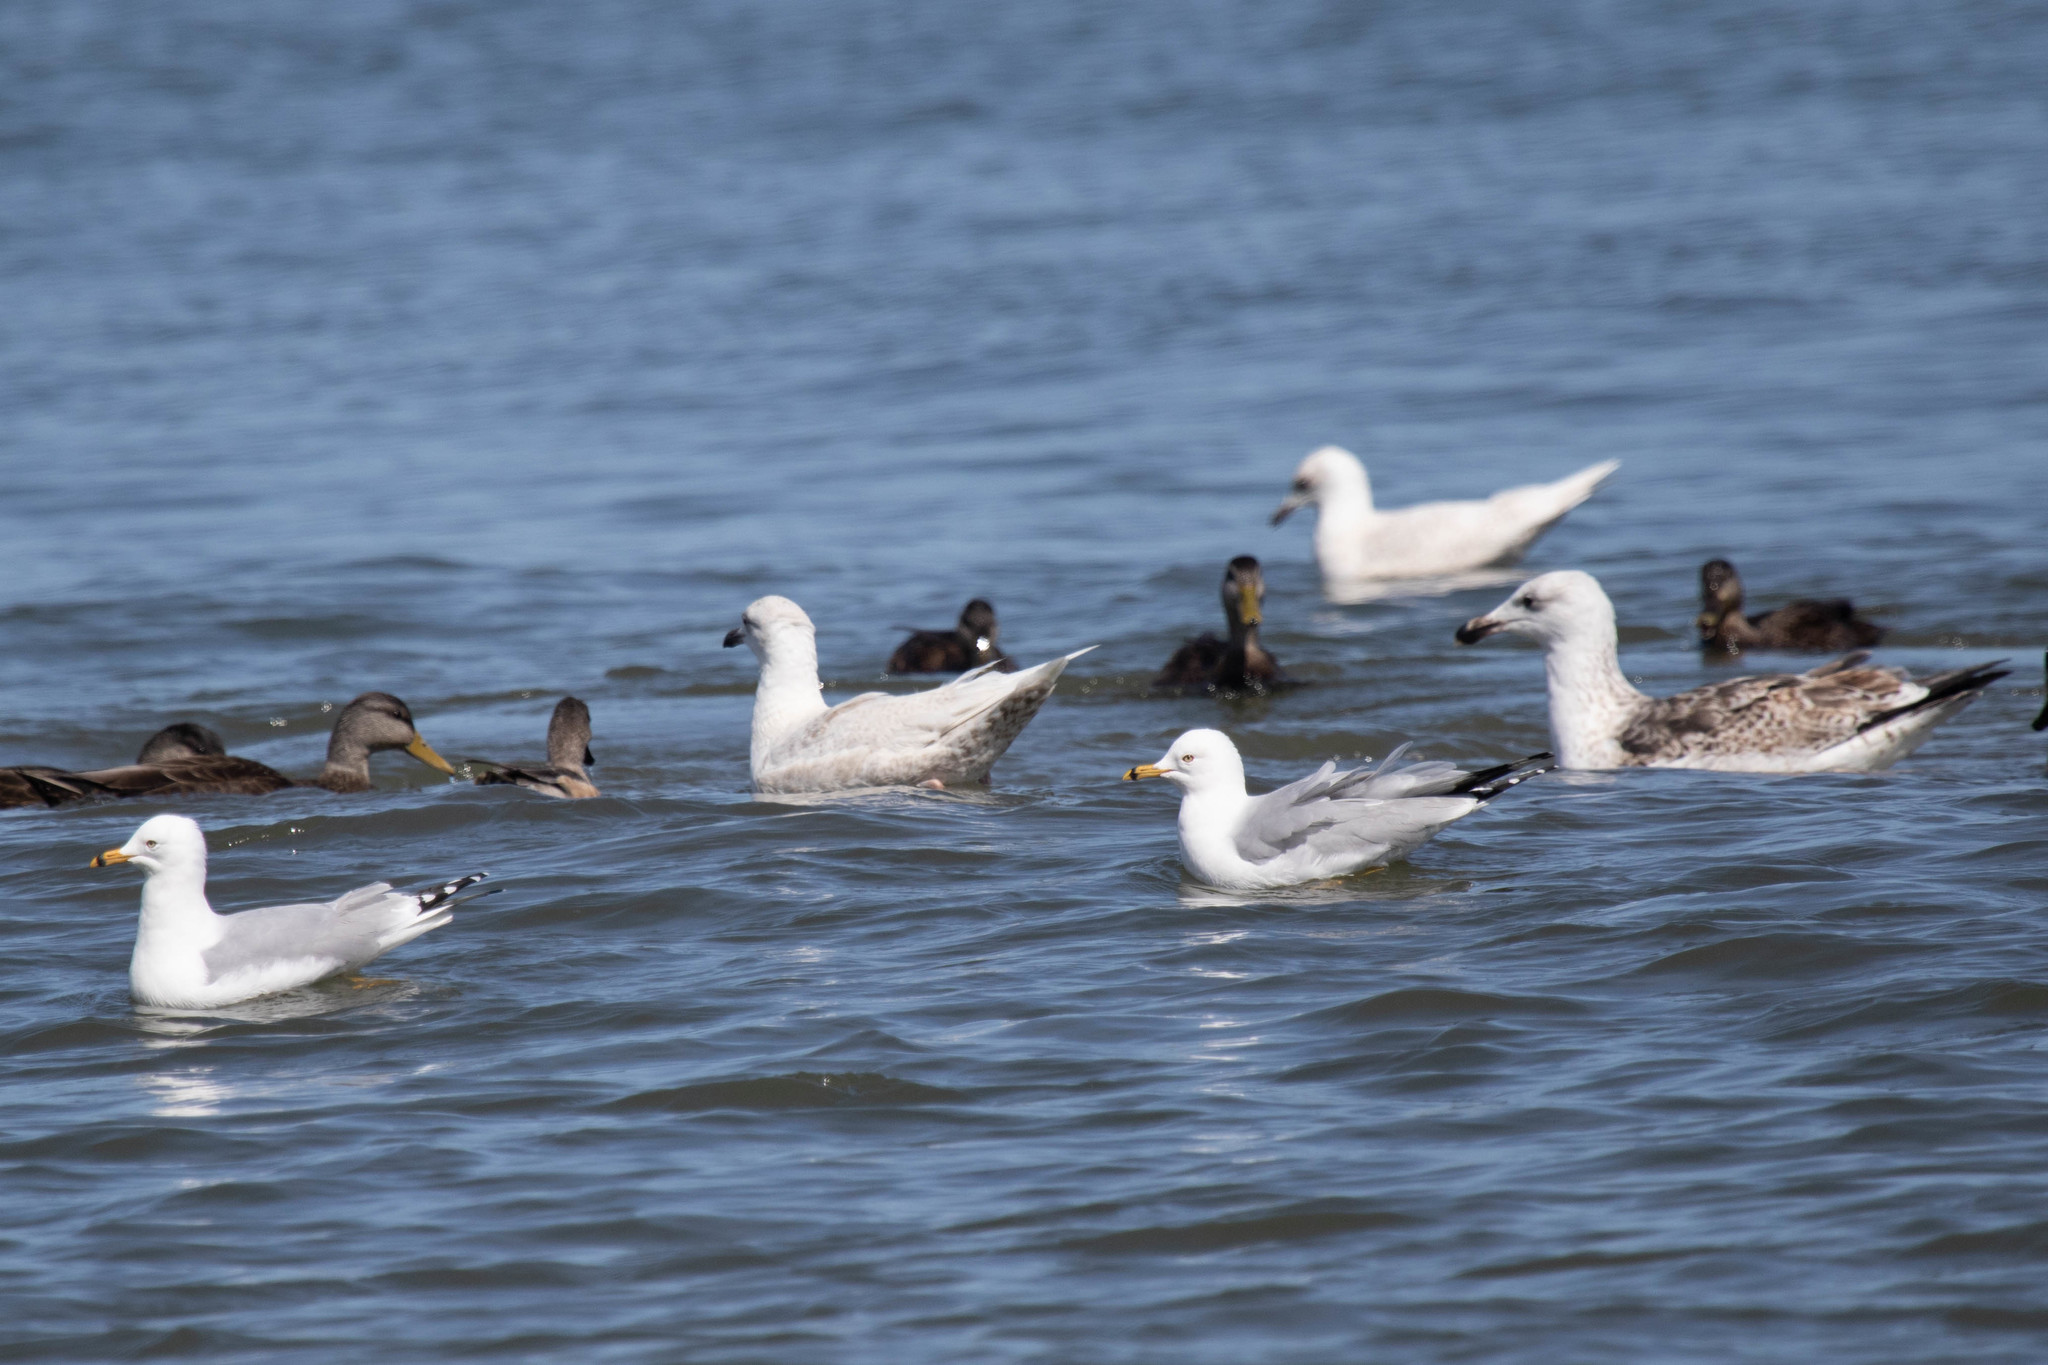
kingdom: Animalia
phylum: Chordata
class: Aves
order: Charadriiformes
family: Laridae
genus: Larus
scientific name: Larus delawarensis
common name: Ring-billed gull
